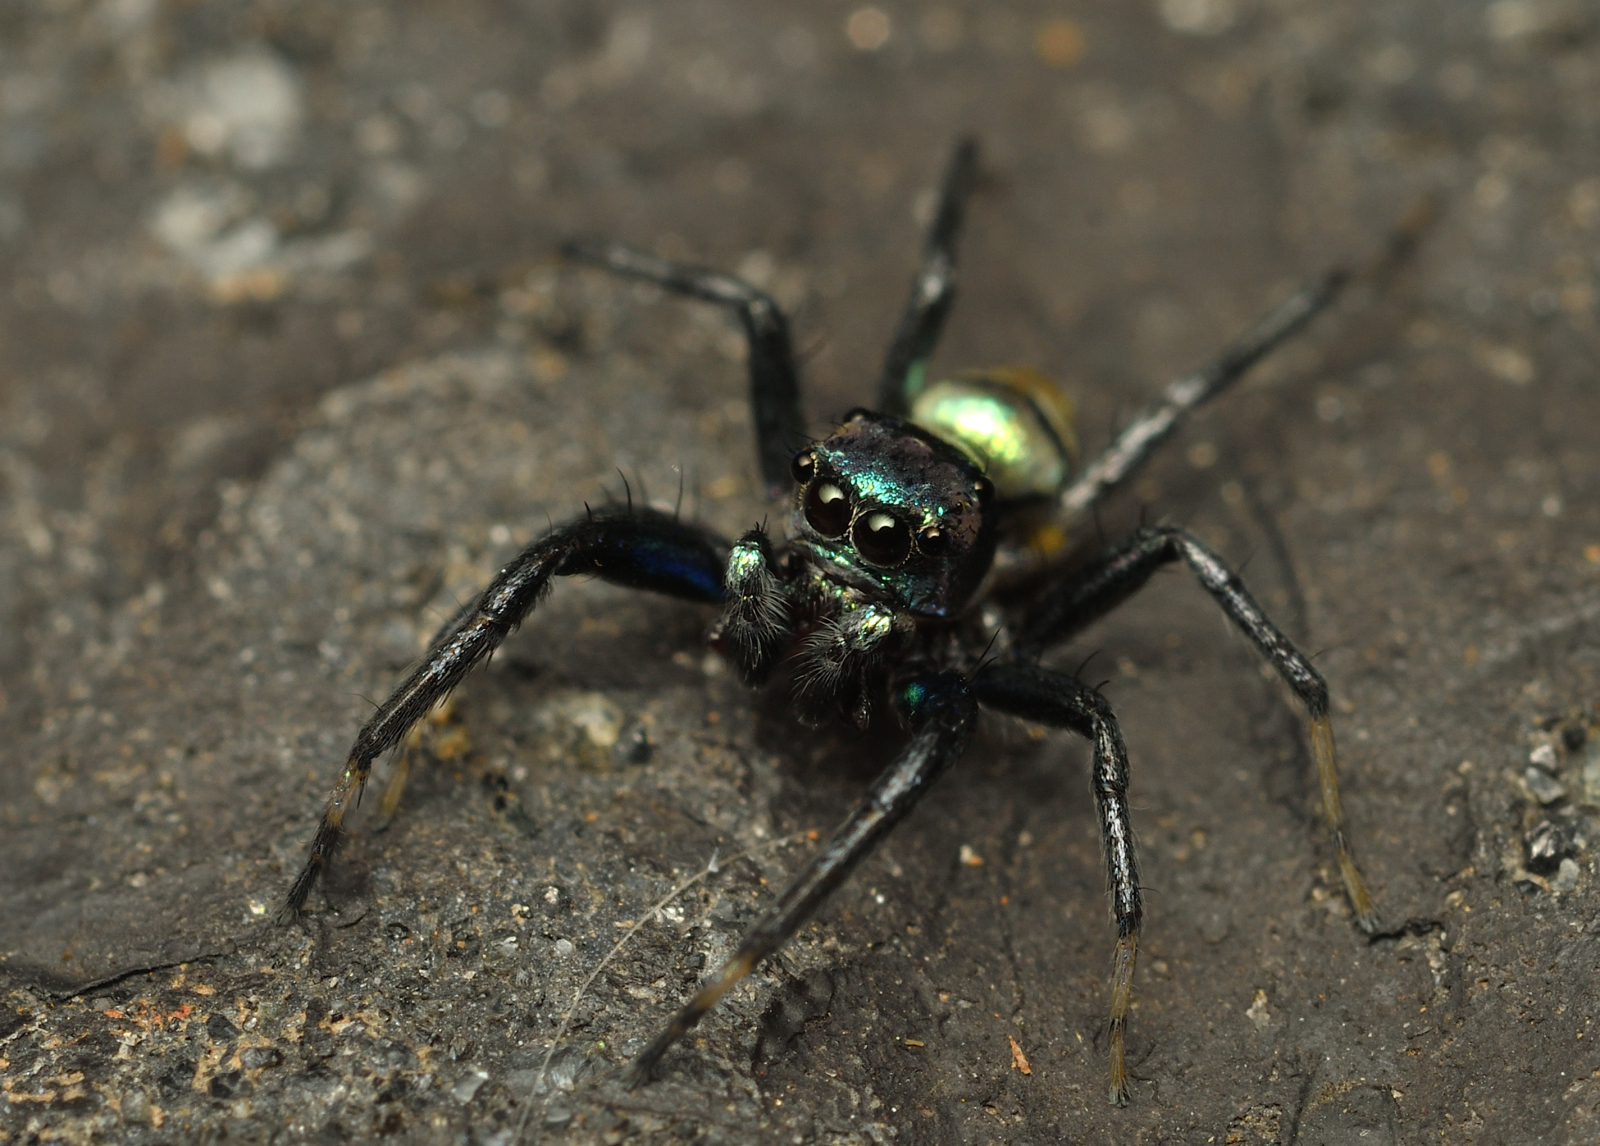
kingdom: Animalia
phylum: Arthropoda
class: Arachnida
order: Araneae
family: Salticidae
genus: Phintella
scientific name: Phintella vittata
